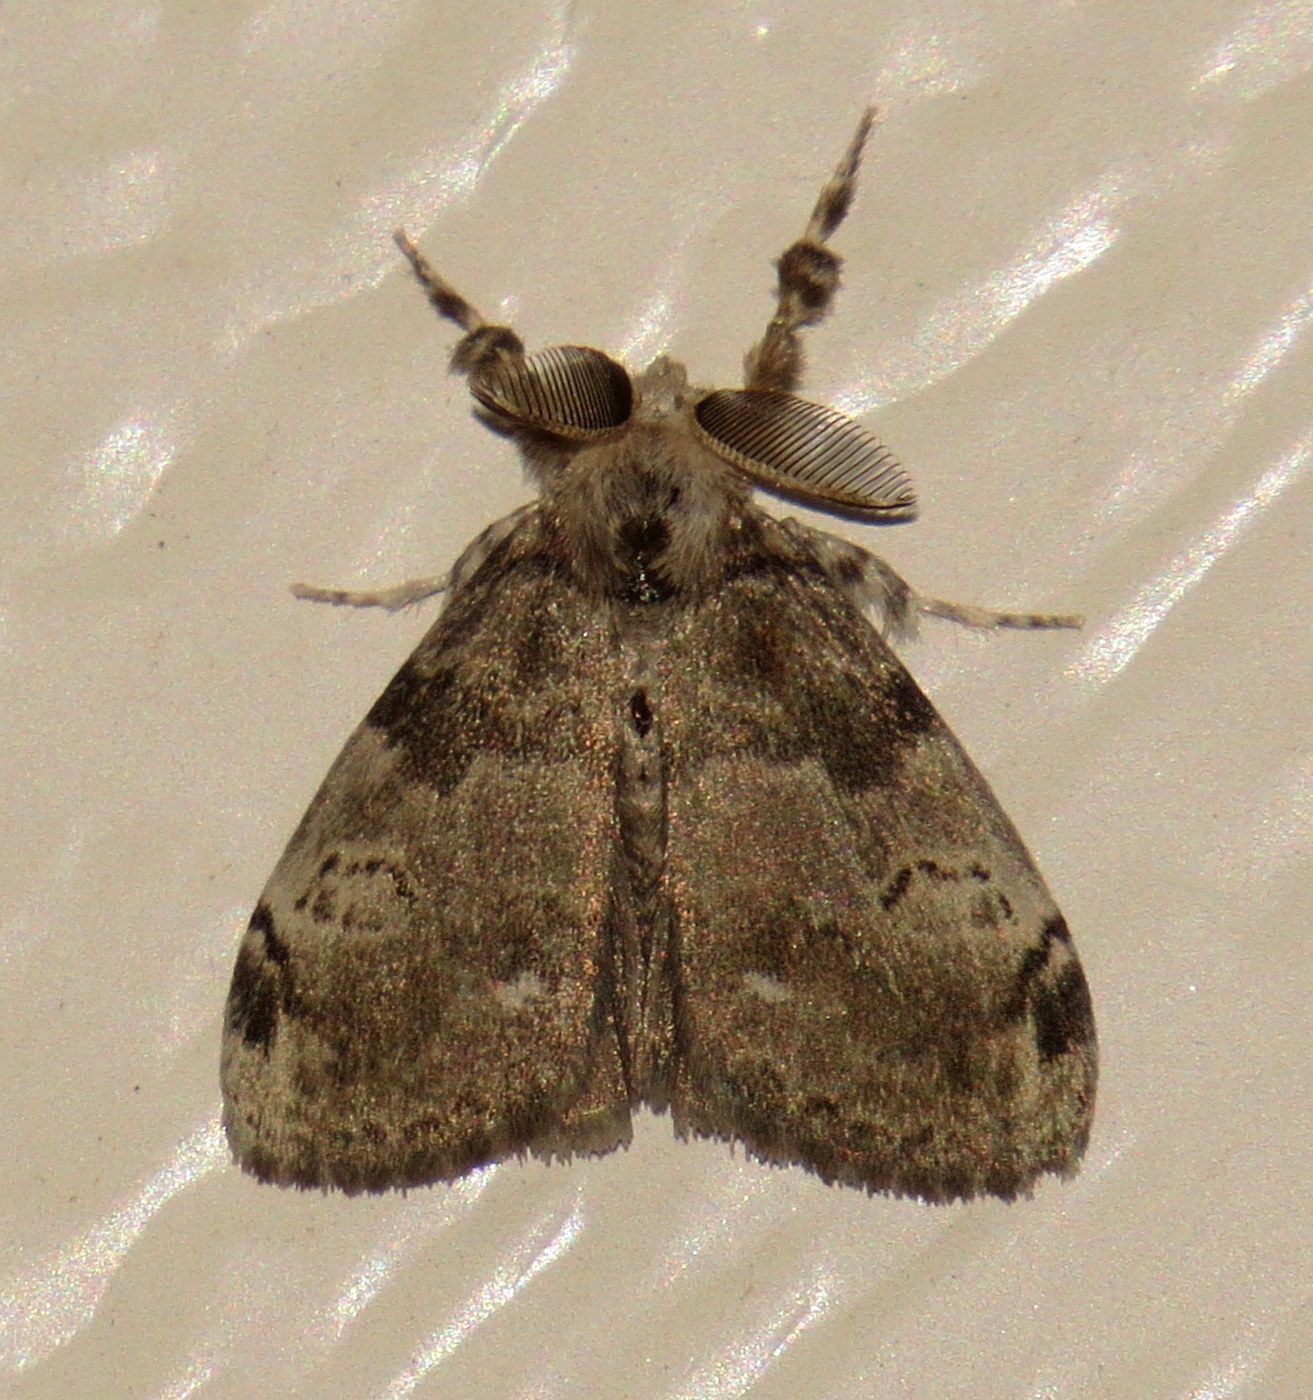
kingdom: Animalia
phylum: Arthropoda
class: Insecta
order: Lepidoptera
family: Erebidae
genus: Orgyia
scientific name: Orgyia leucostigma
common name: White-marked tussock moth
